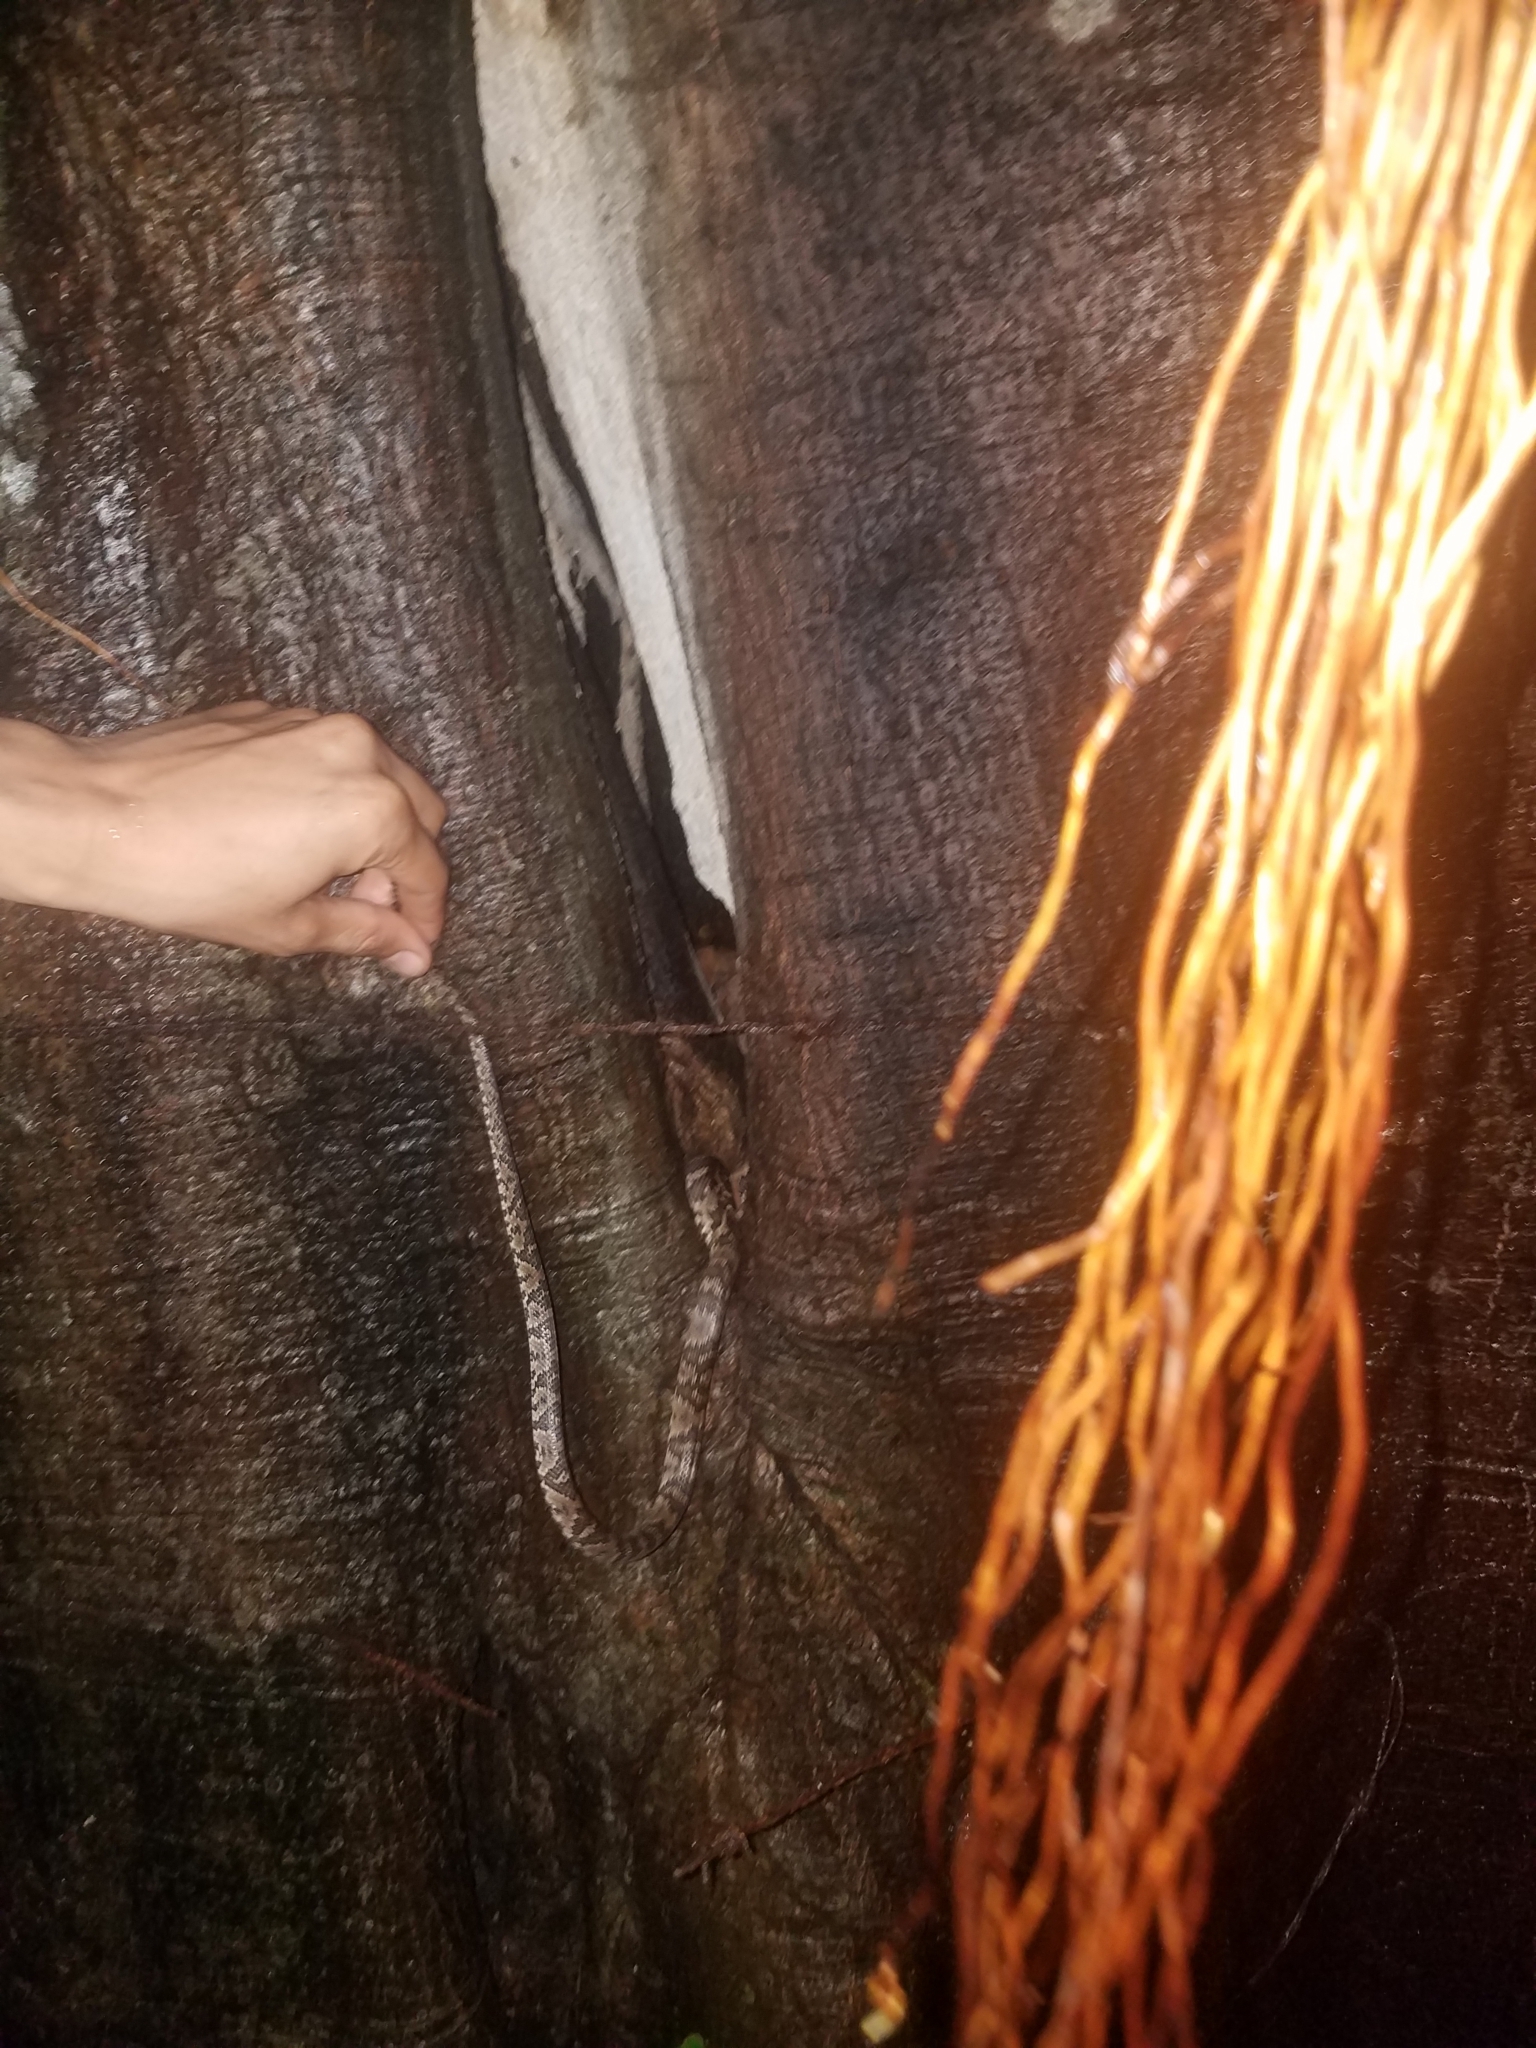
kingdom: Animalia
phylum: Chordata
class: Squamata
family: Colubridae
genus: Trimorphodon
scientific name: Trimorphodon quadruplex
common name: Central american lyre snake
